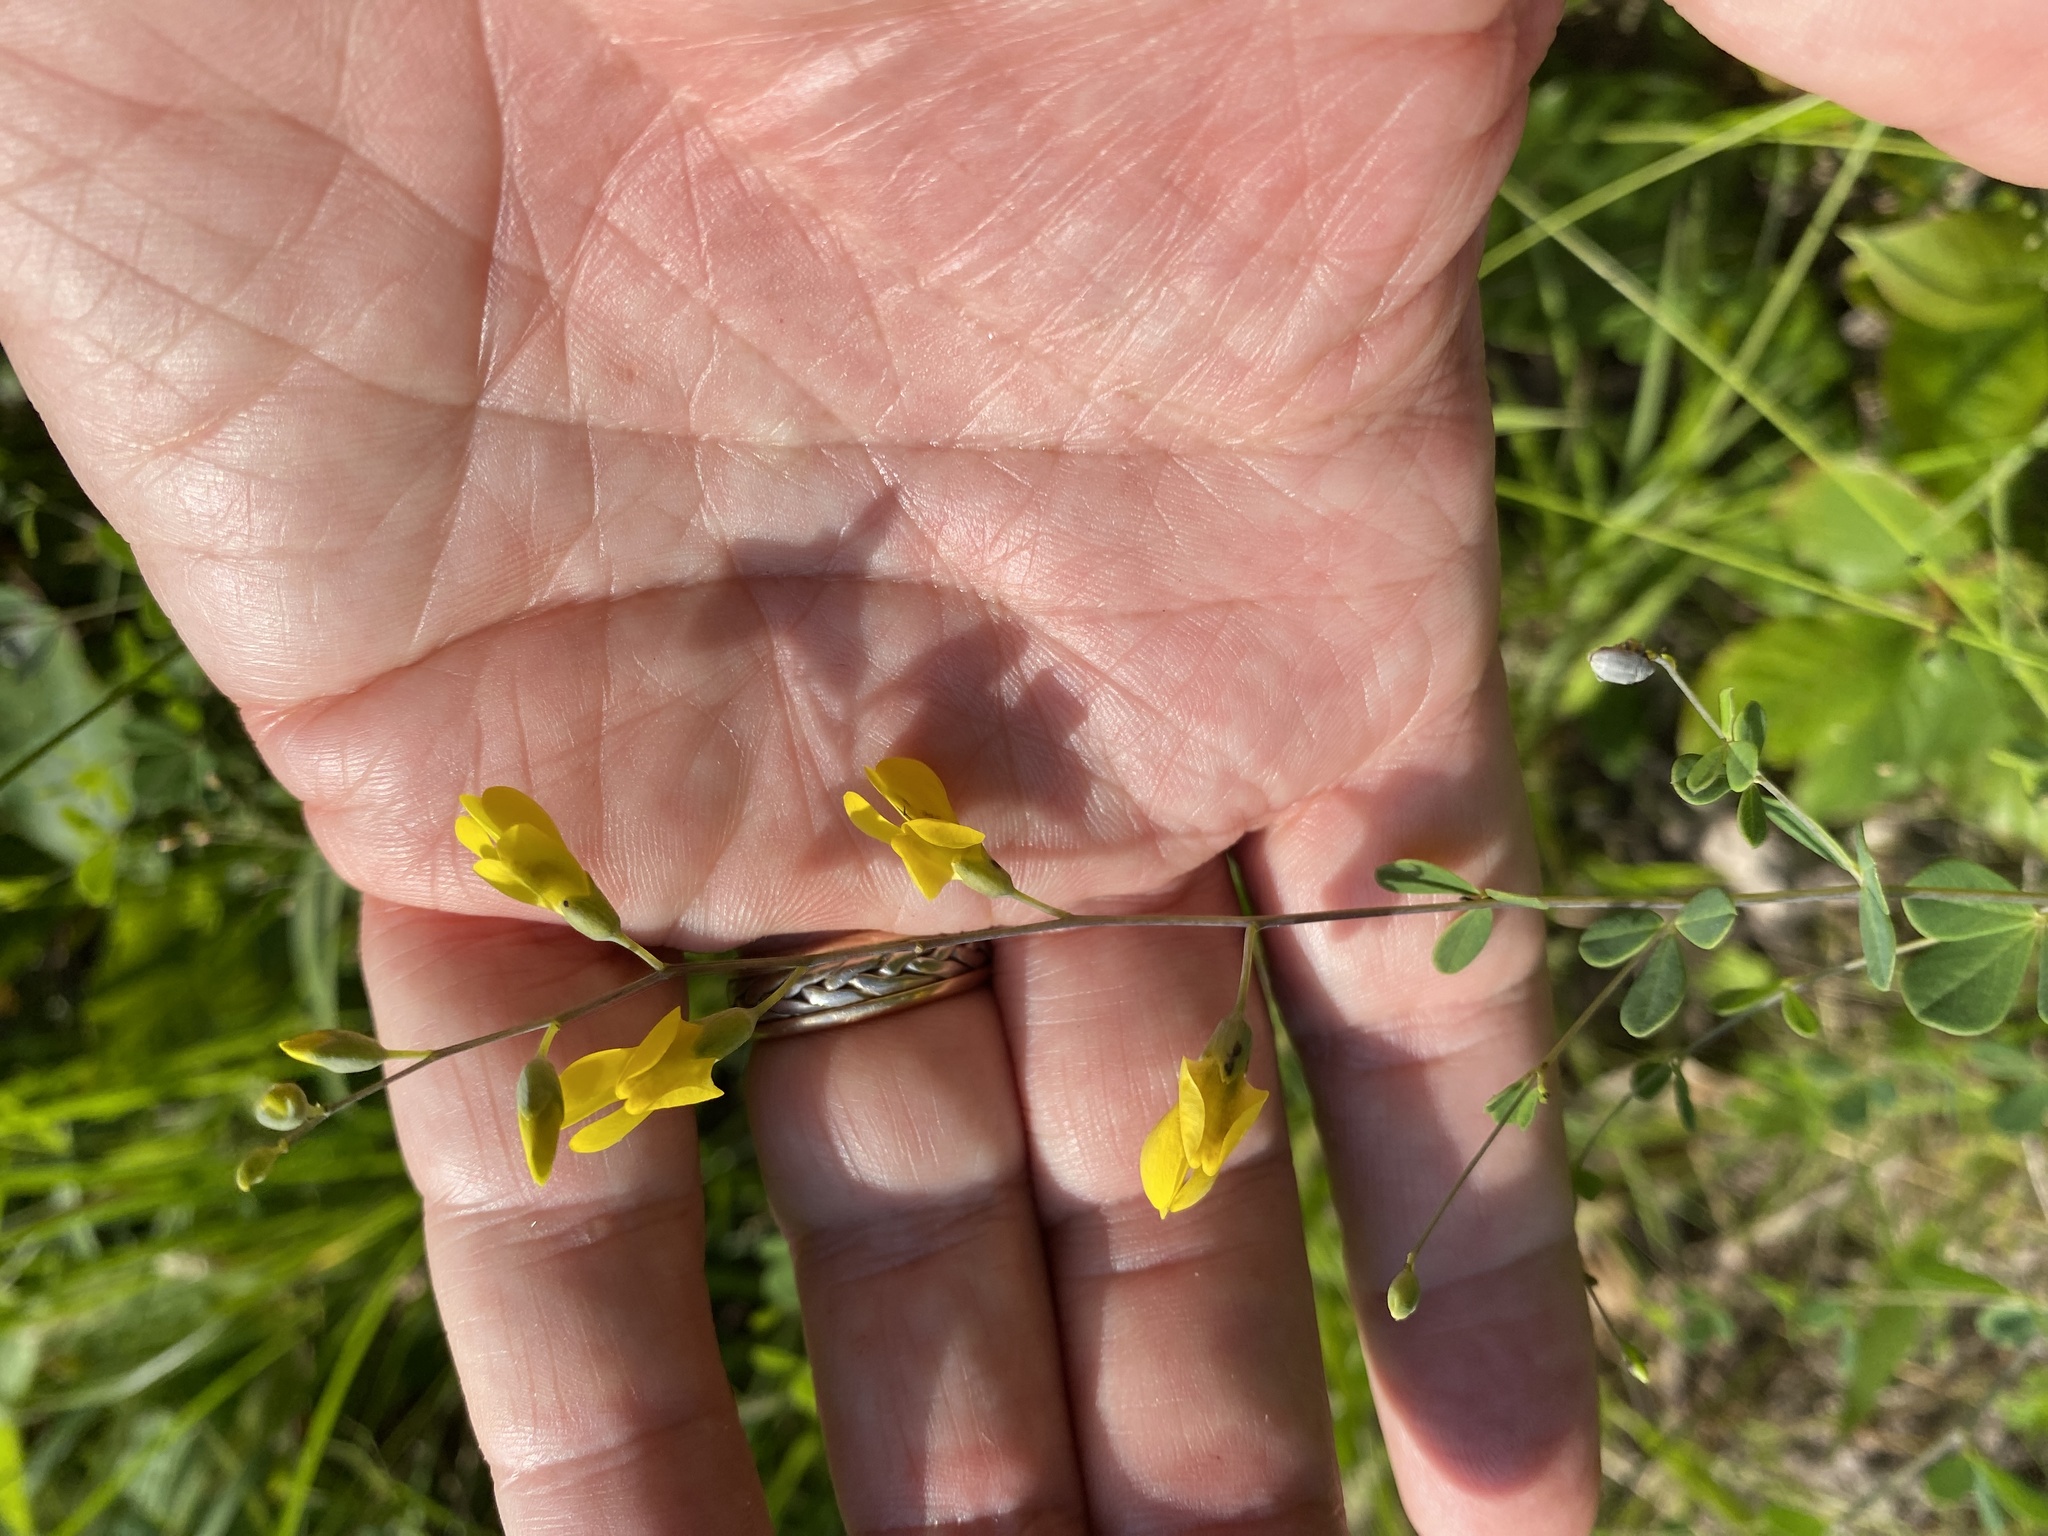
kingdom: Plantae
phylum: Tracheophyta
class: Magnoliopsida
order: Fabales
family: Fabaceae
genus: Baptisia
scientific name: Baptisia tinctoria
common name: Wild indigo
